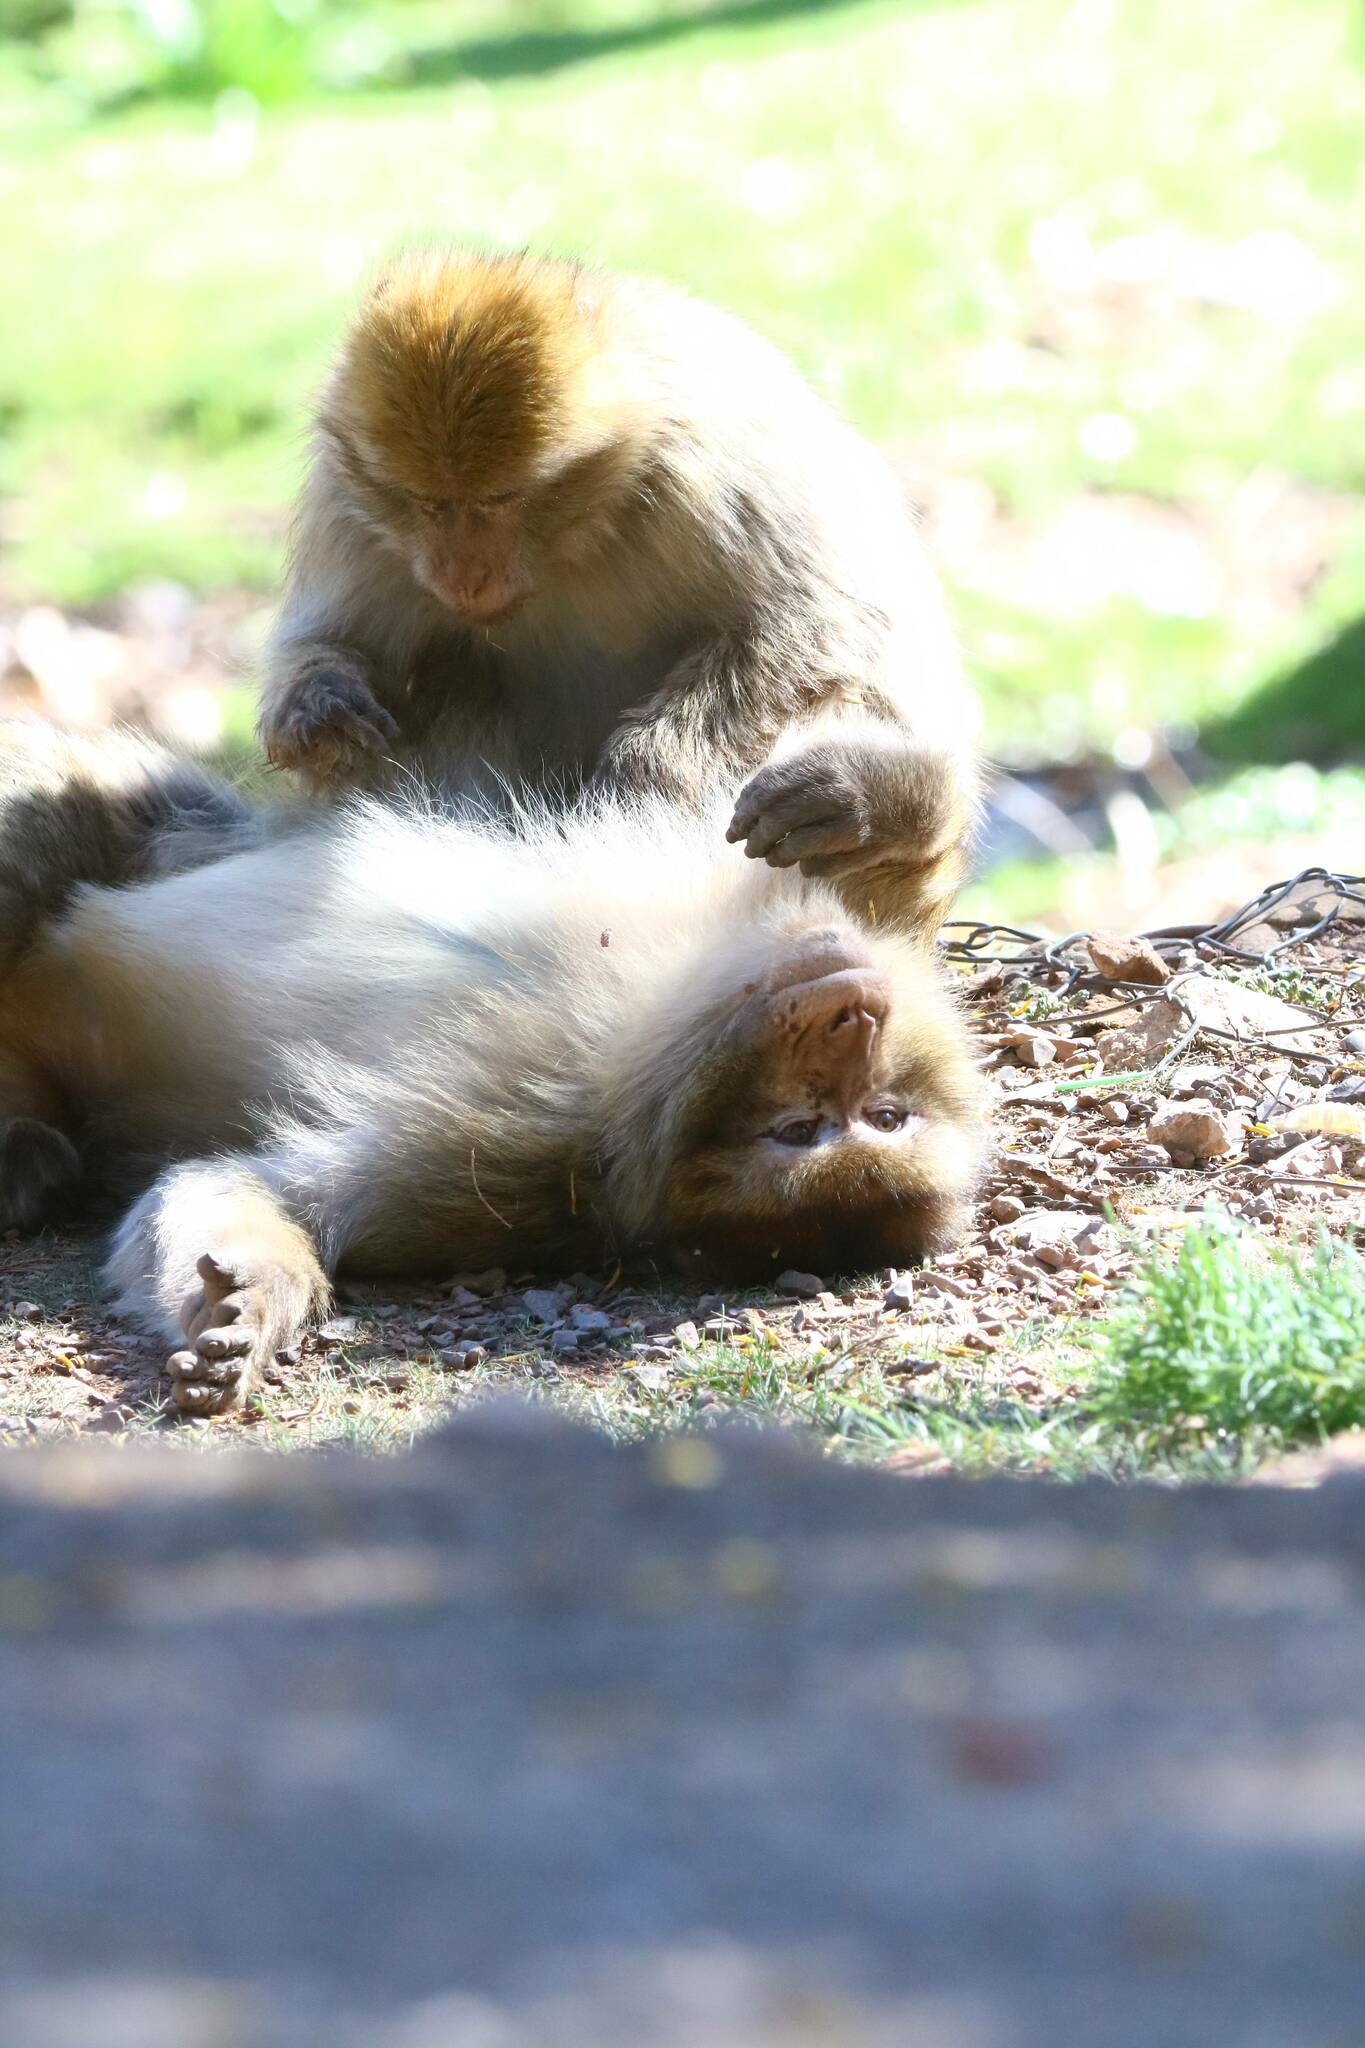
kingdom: Animalia
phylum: Chordata
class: Mammalia
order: Primates
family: Cercopithecidae
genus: Macaca
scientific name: Macaca sylvanus
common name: Barbary macaque
